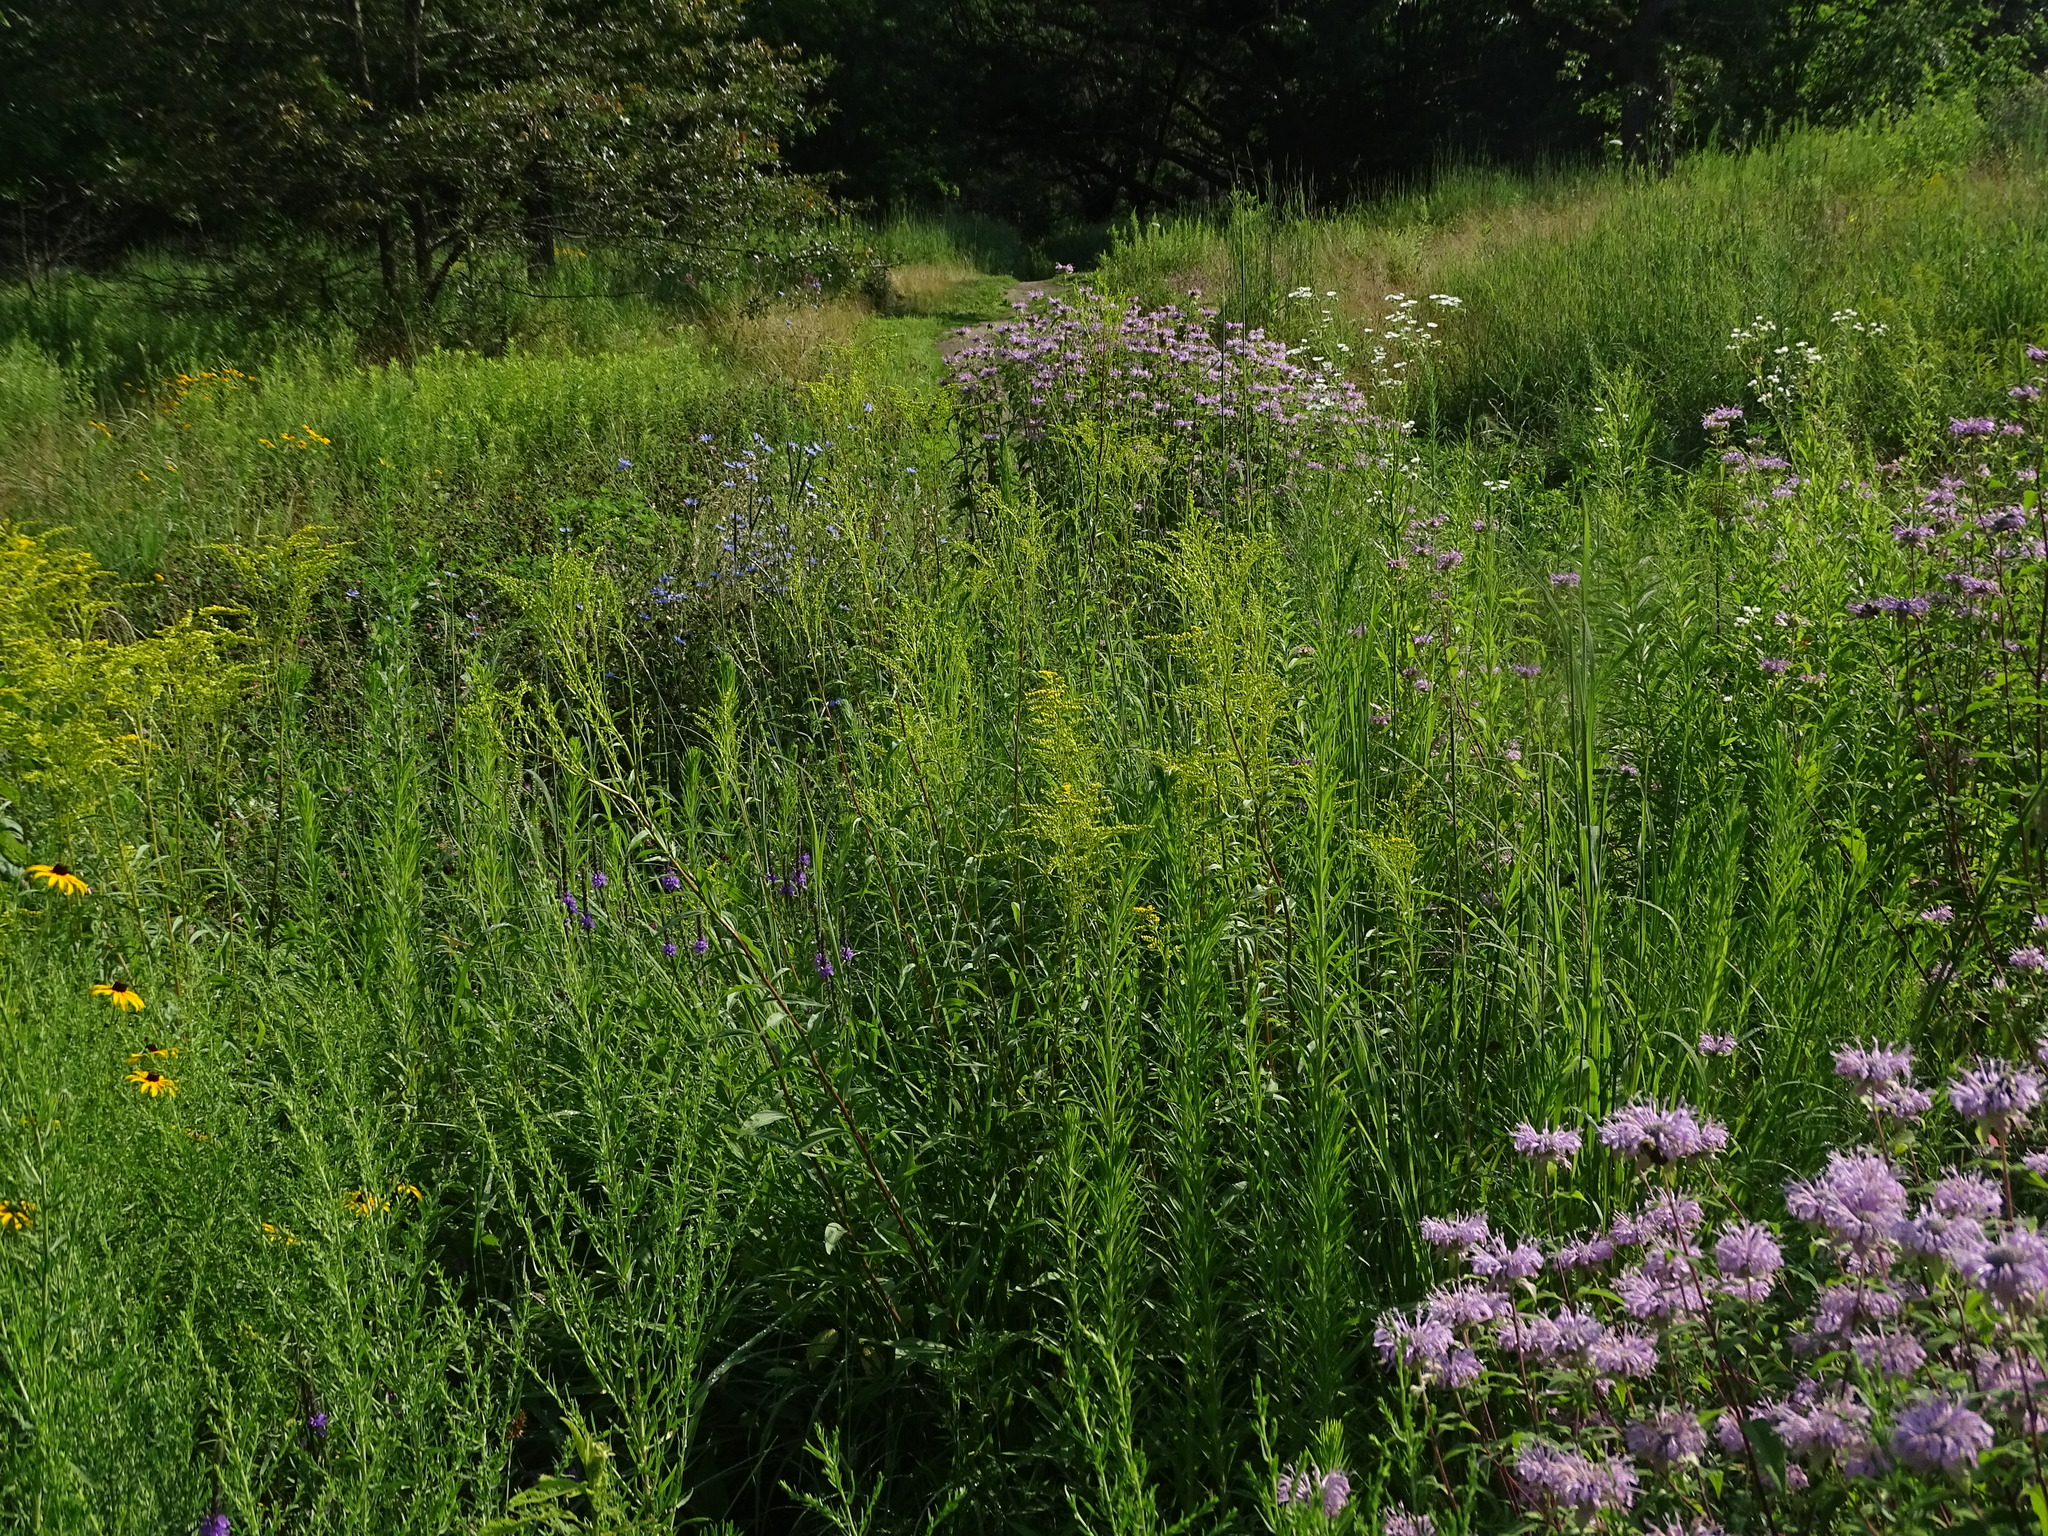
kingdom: Plantae
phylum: Tracheophyta
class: Magnoliopsida
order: Asterales
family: Asteraceae
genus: Solidago
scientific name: Solidago juncea
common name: Early goldenrod
